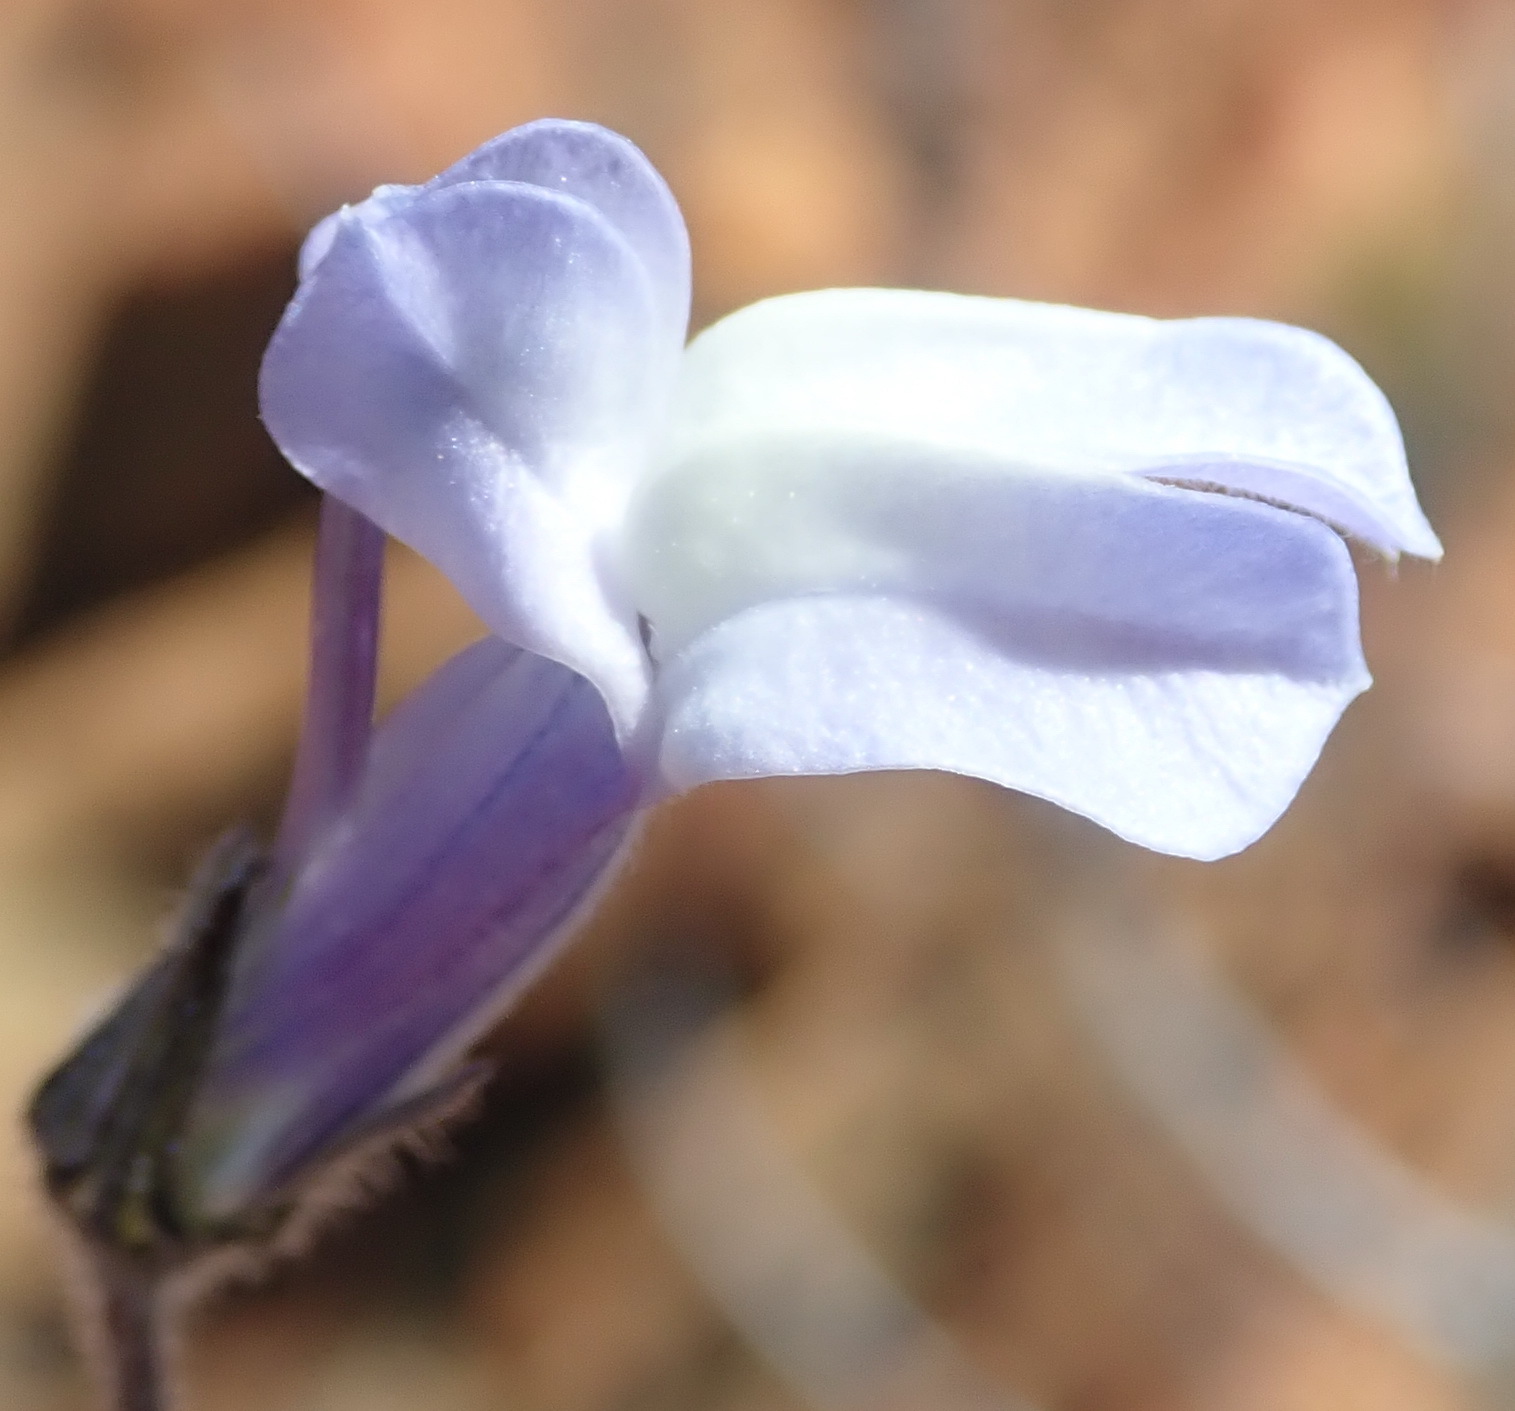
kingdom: Plantae
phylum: Tracheophyta
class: Magnoliopsida
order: Asterales
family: Campanulaceae
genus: Lobelia
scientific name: Lobelia linearis
